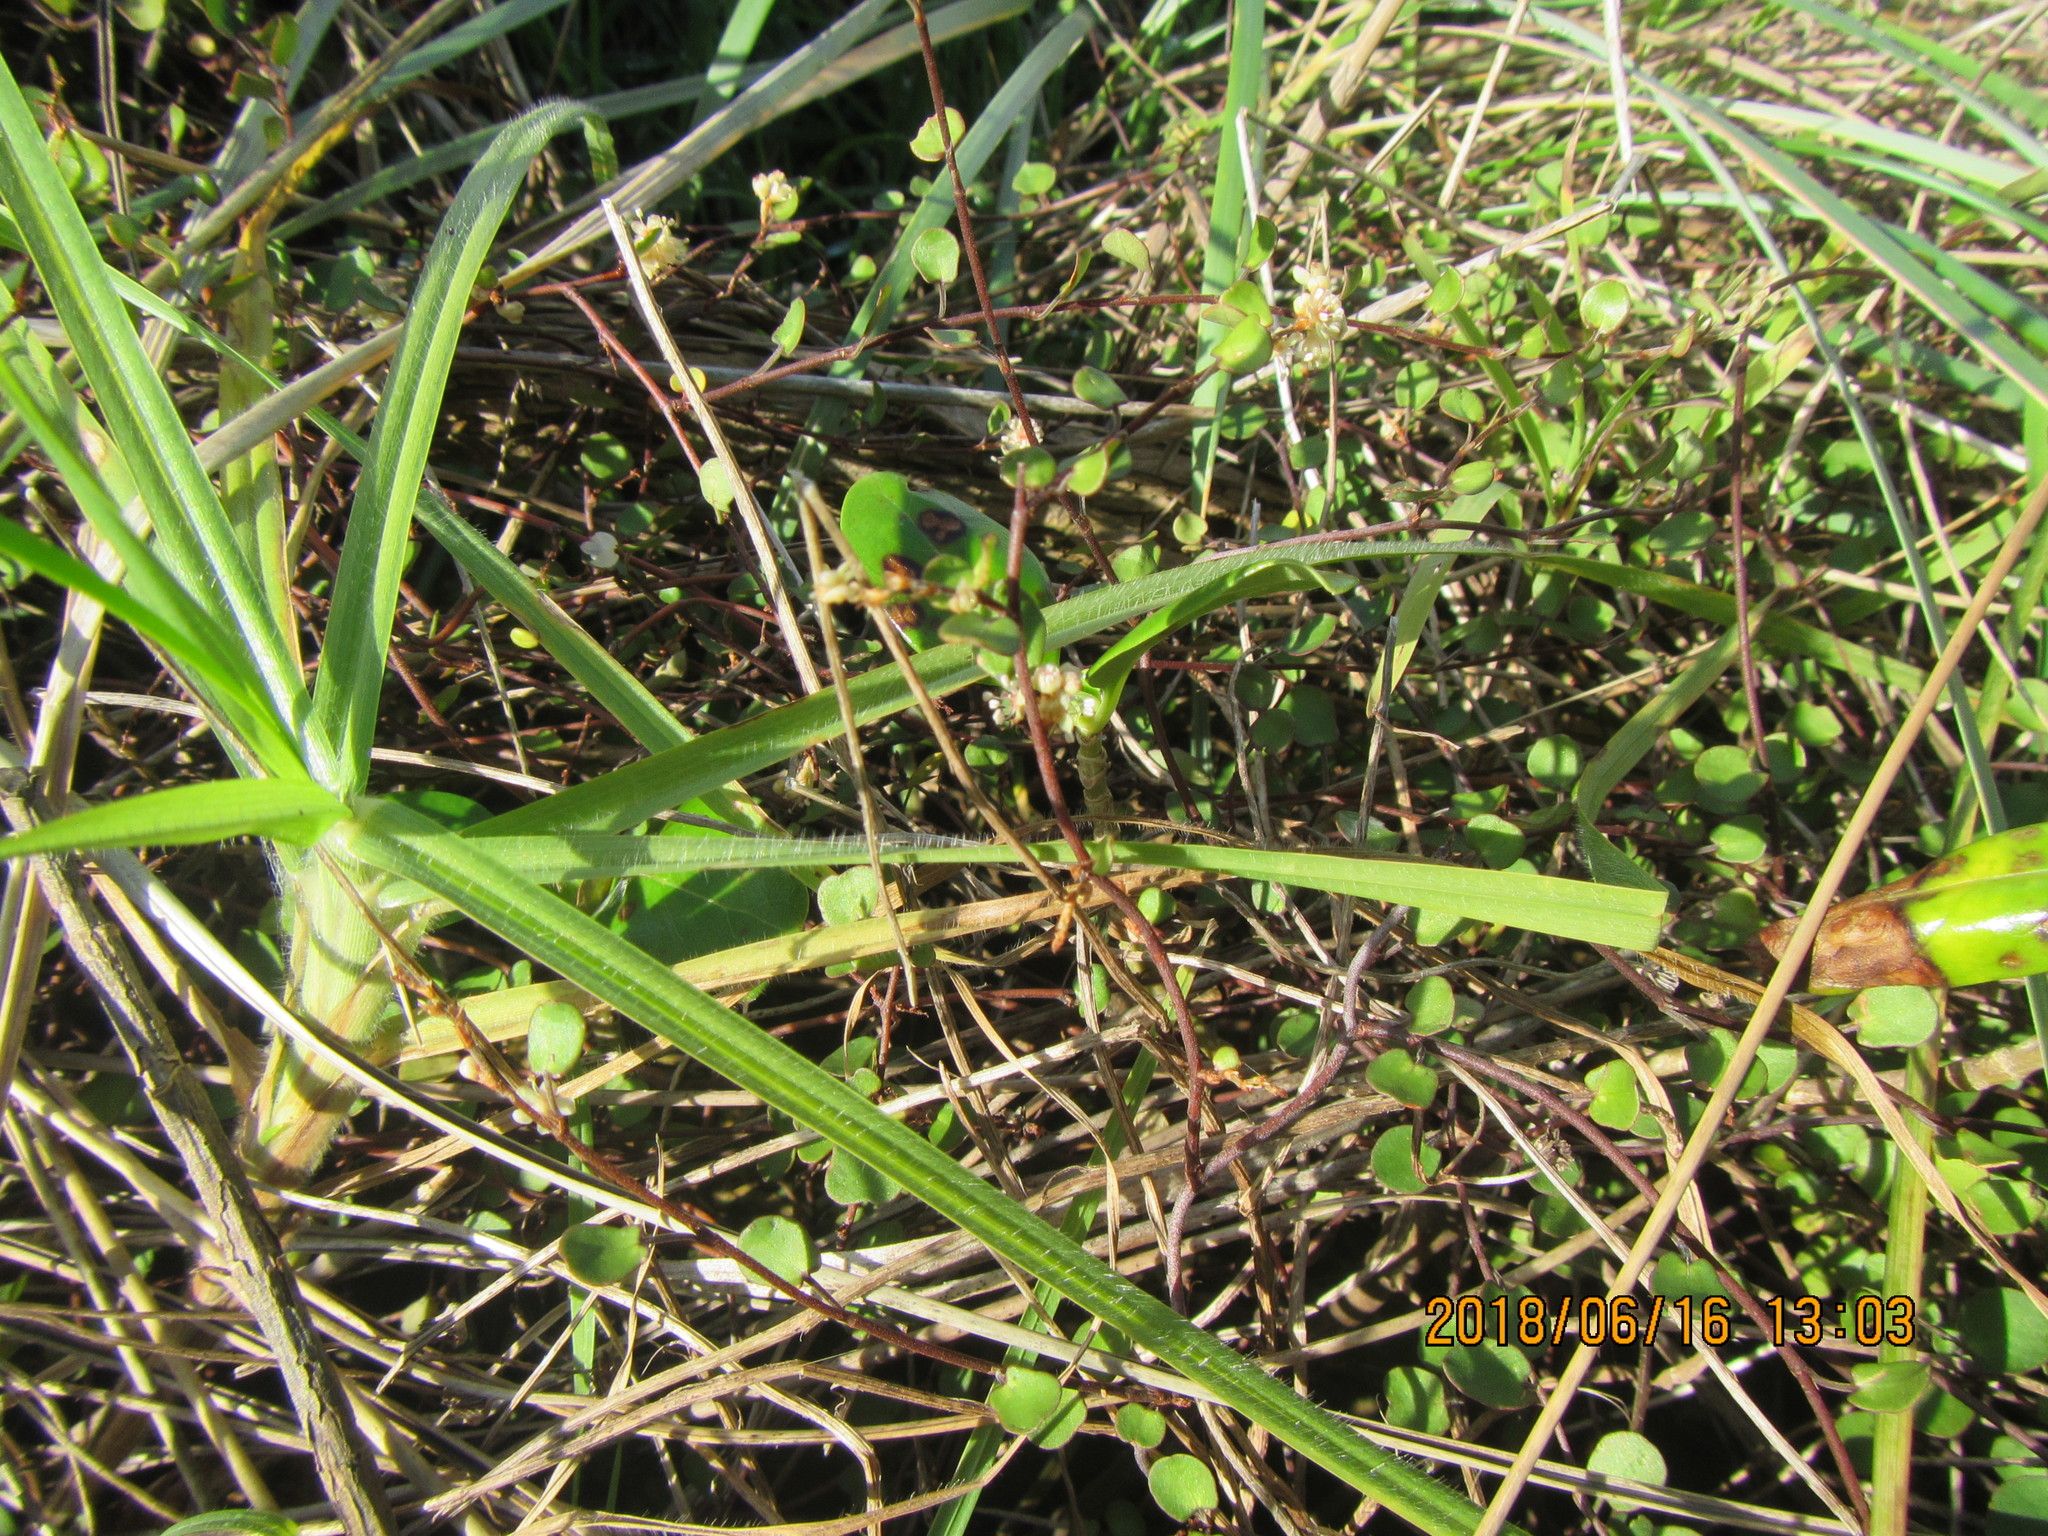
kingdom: Plantae
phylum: Tracheophyta
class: Magnoliopsida
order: Caryophyllales
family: Polygonaceae
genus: Muehlenbeckia
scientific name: Muehlenbeckia complexa
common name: Wireplant
